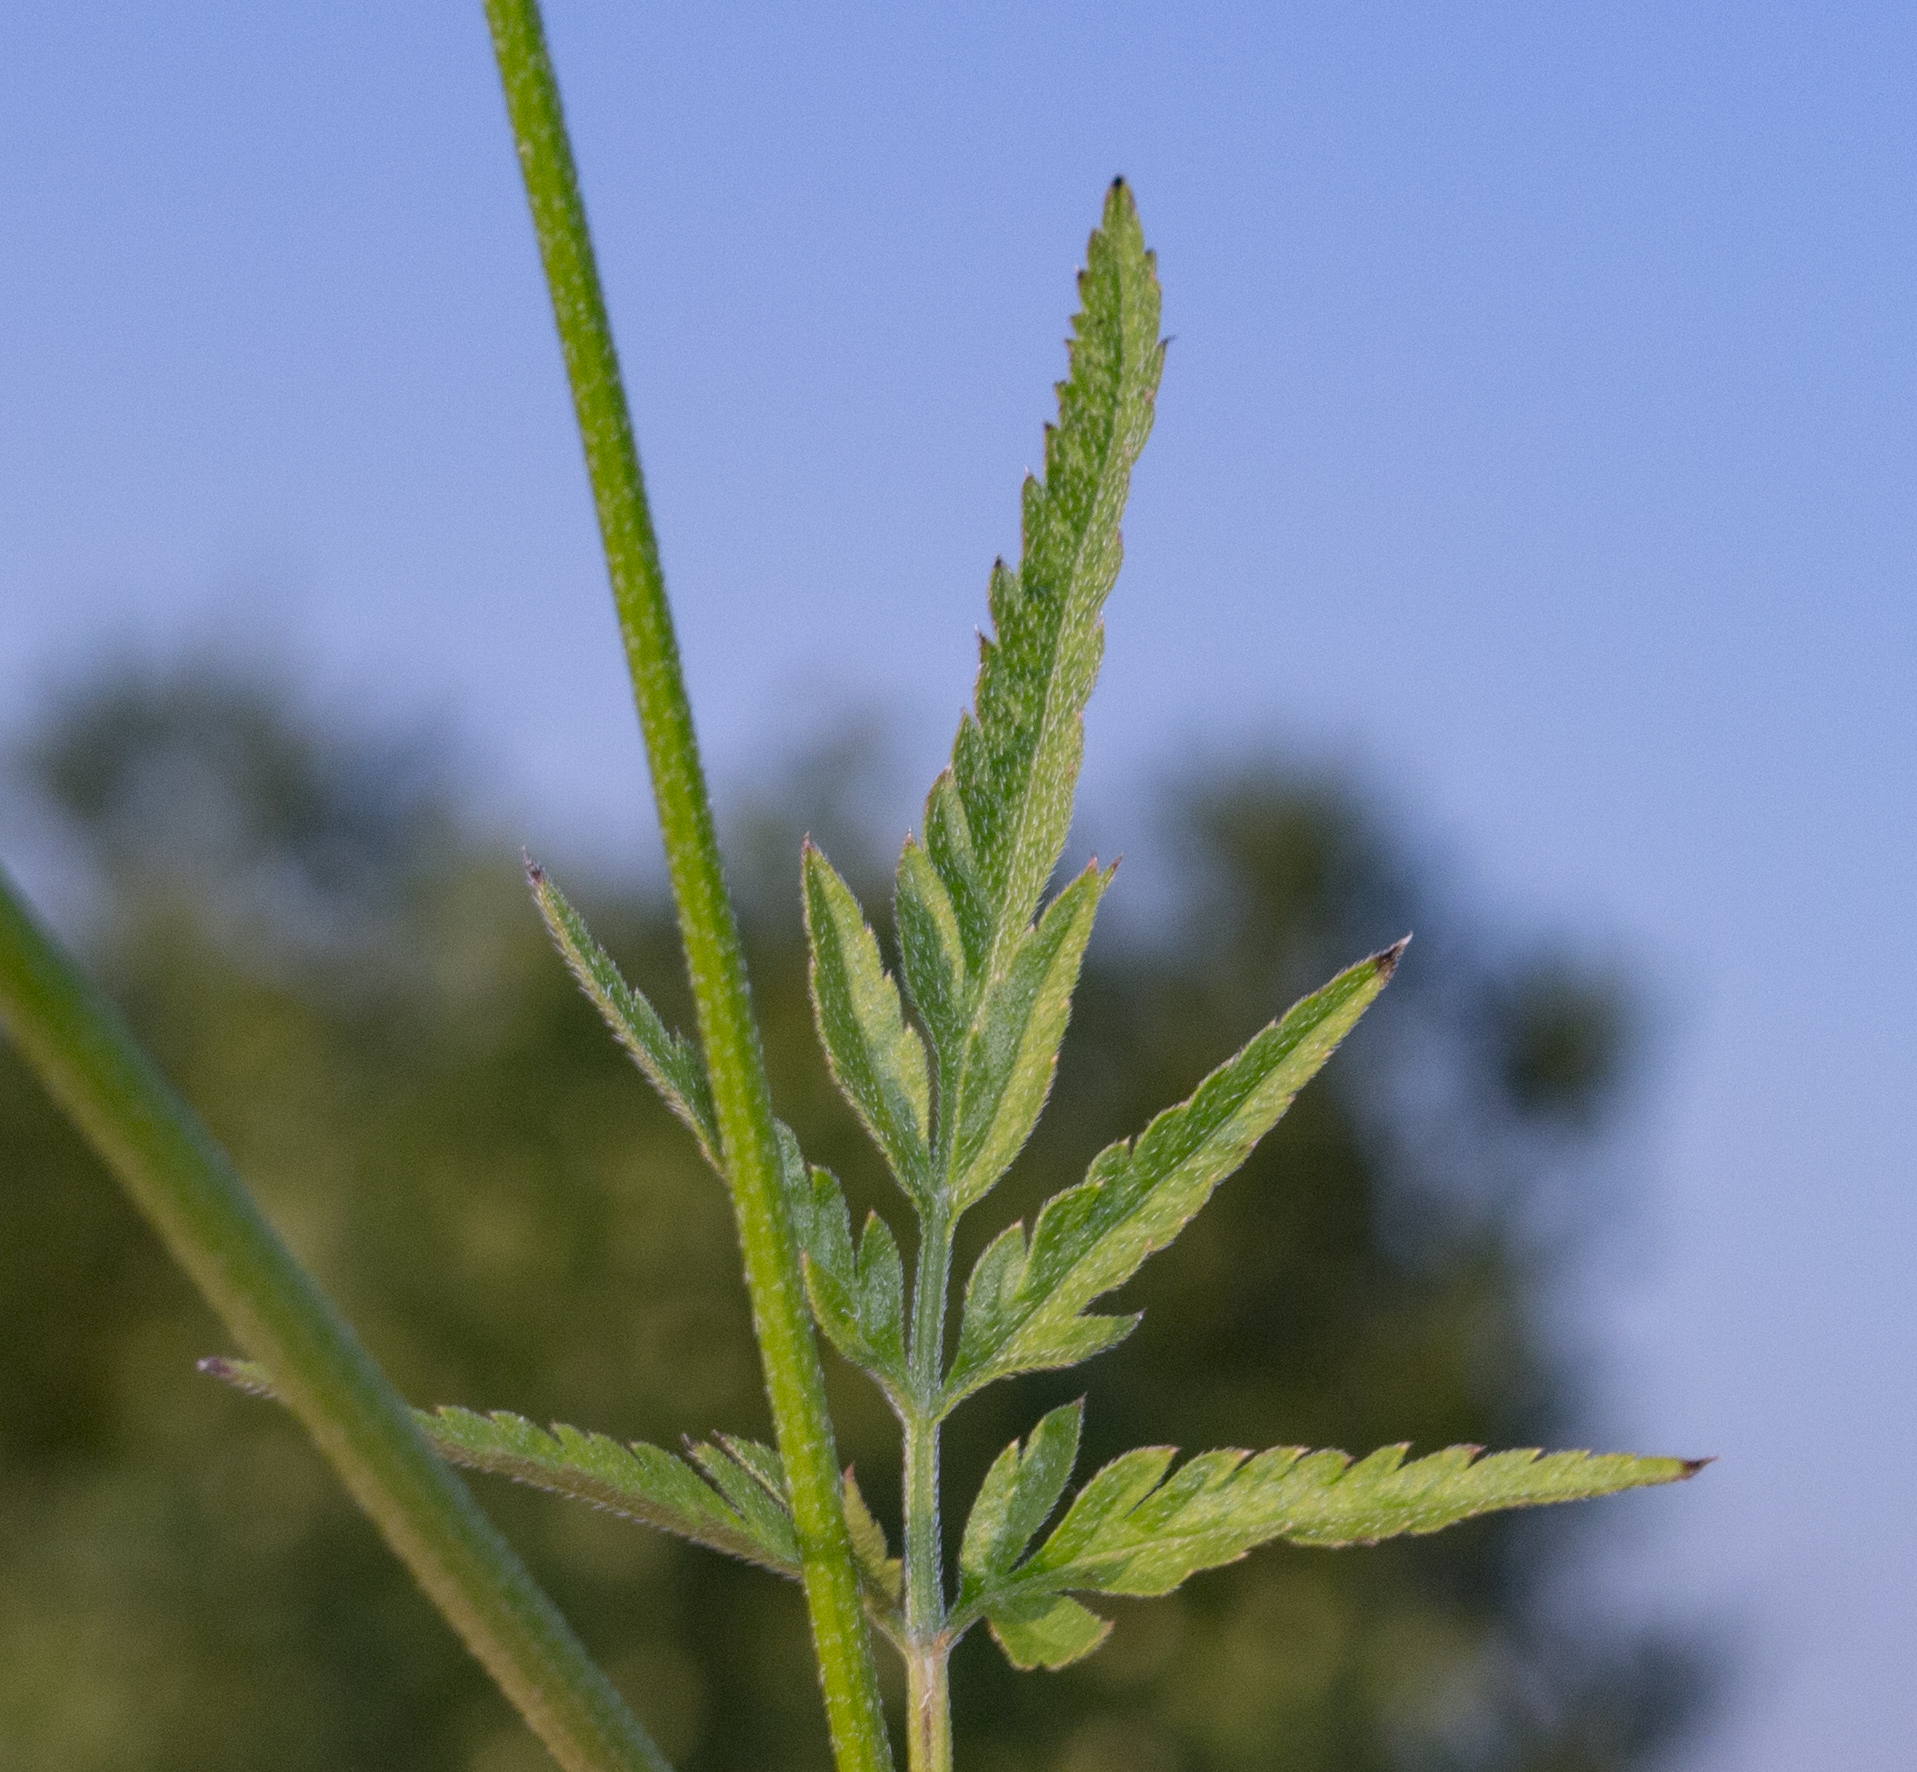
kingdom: Plantae
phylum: Tracheophyta
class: Magnoliopsida
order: Apiales
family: Apiaceae
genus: Torilis
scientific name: Torilis japonica
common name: Upright hedge-parsley
